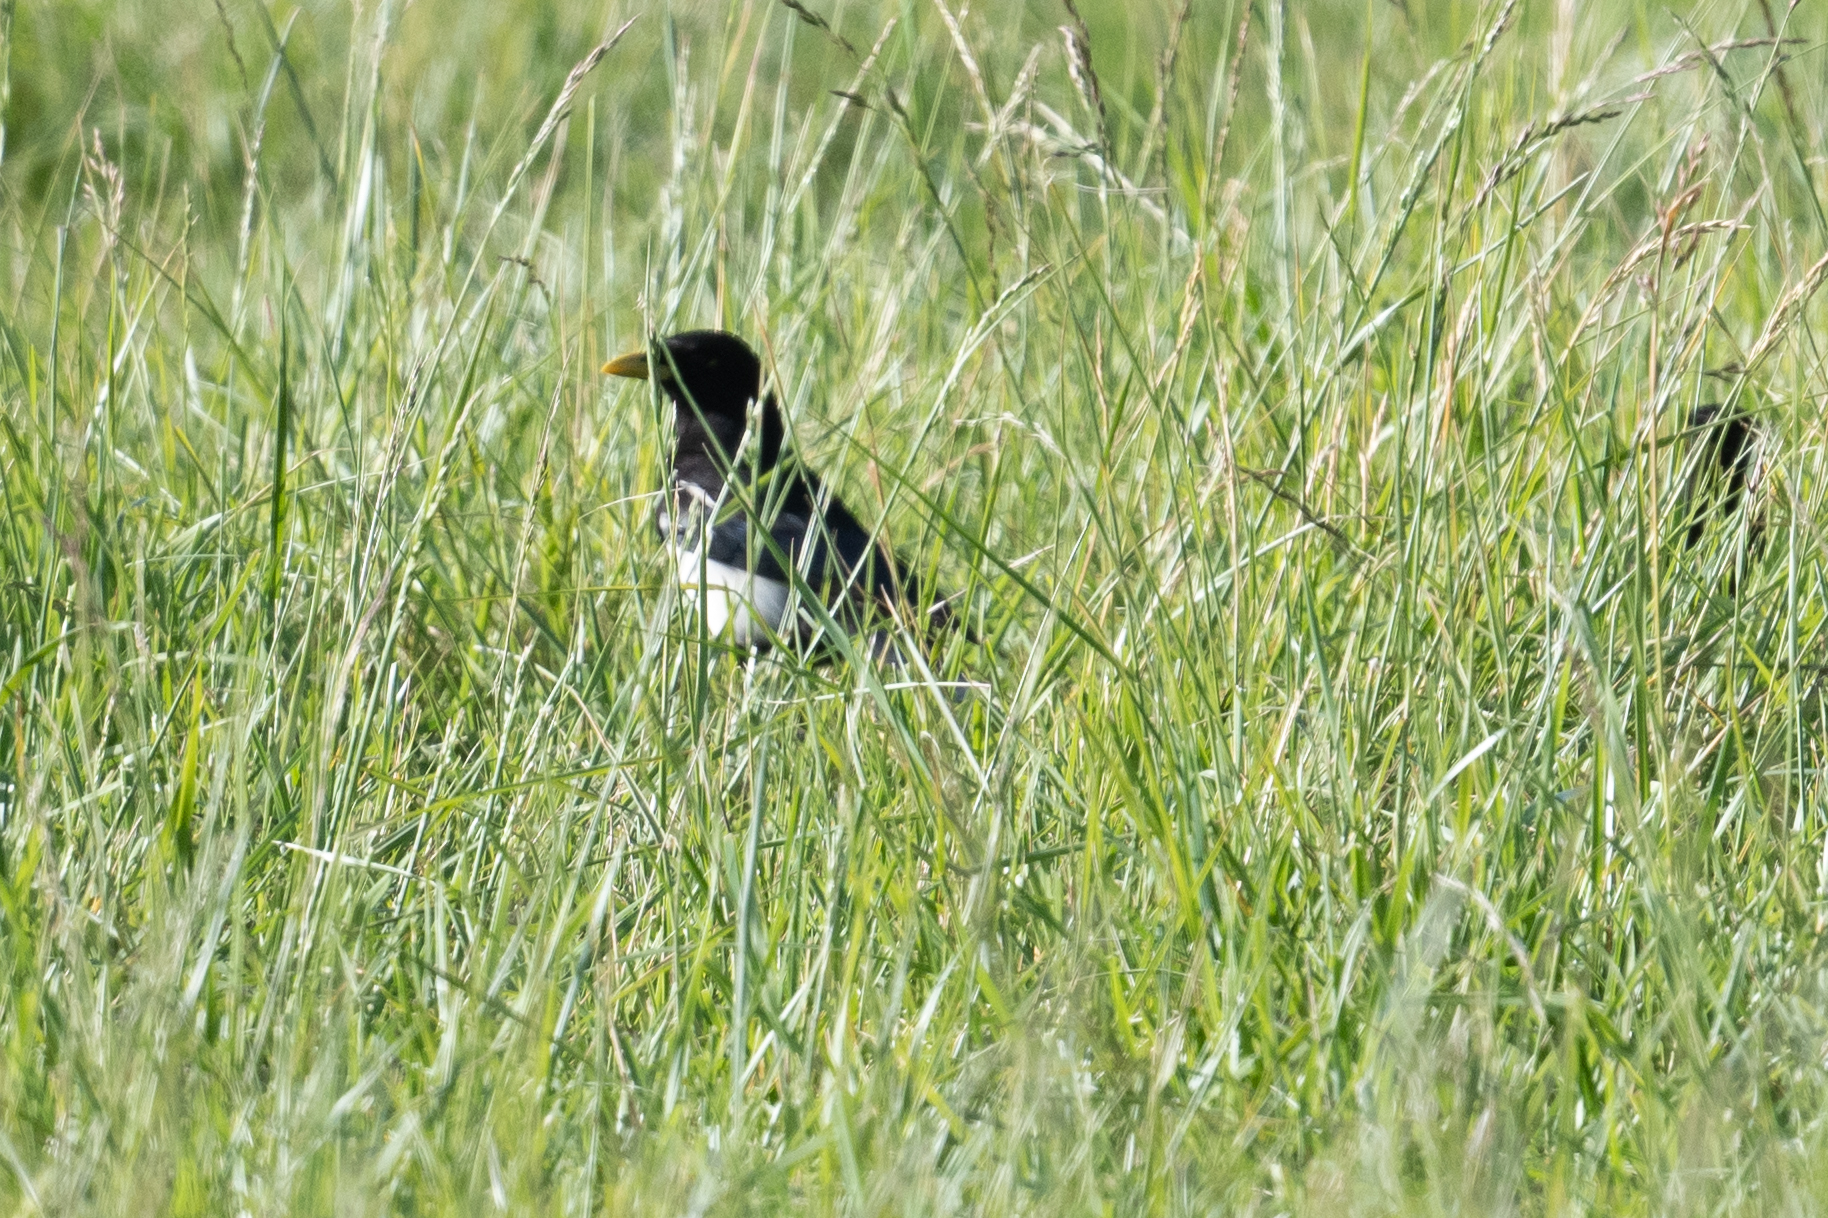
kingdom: Animalia
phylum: Chordata
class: Aves
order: Passeriformes
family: Corvidae
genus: Pica
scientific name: Pica nuttalli
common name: Yellow-billed magpie
